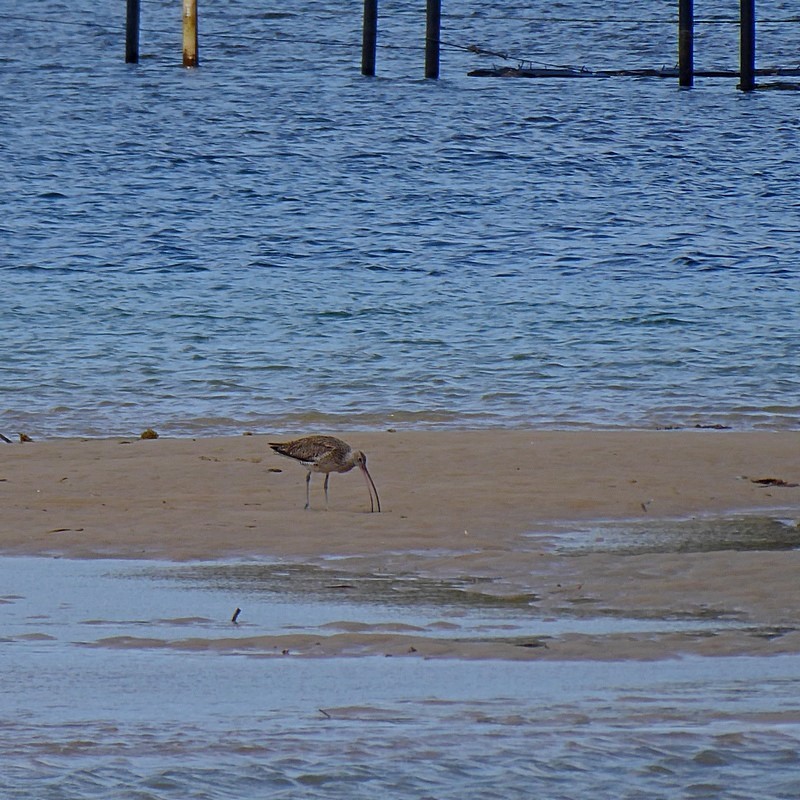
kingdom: Animalia
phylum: Chordata
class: Aves
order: Charadriiformes
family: Scolopacidae
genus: Numenius
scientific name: Numenius madagascariensis
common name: Far eastern curlew
